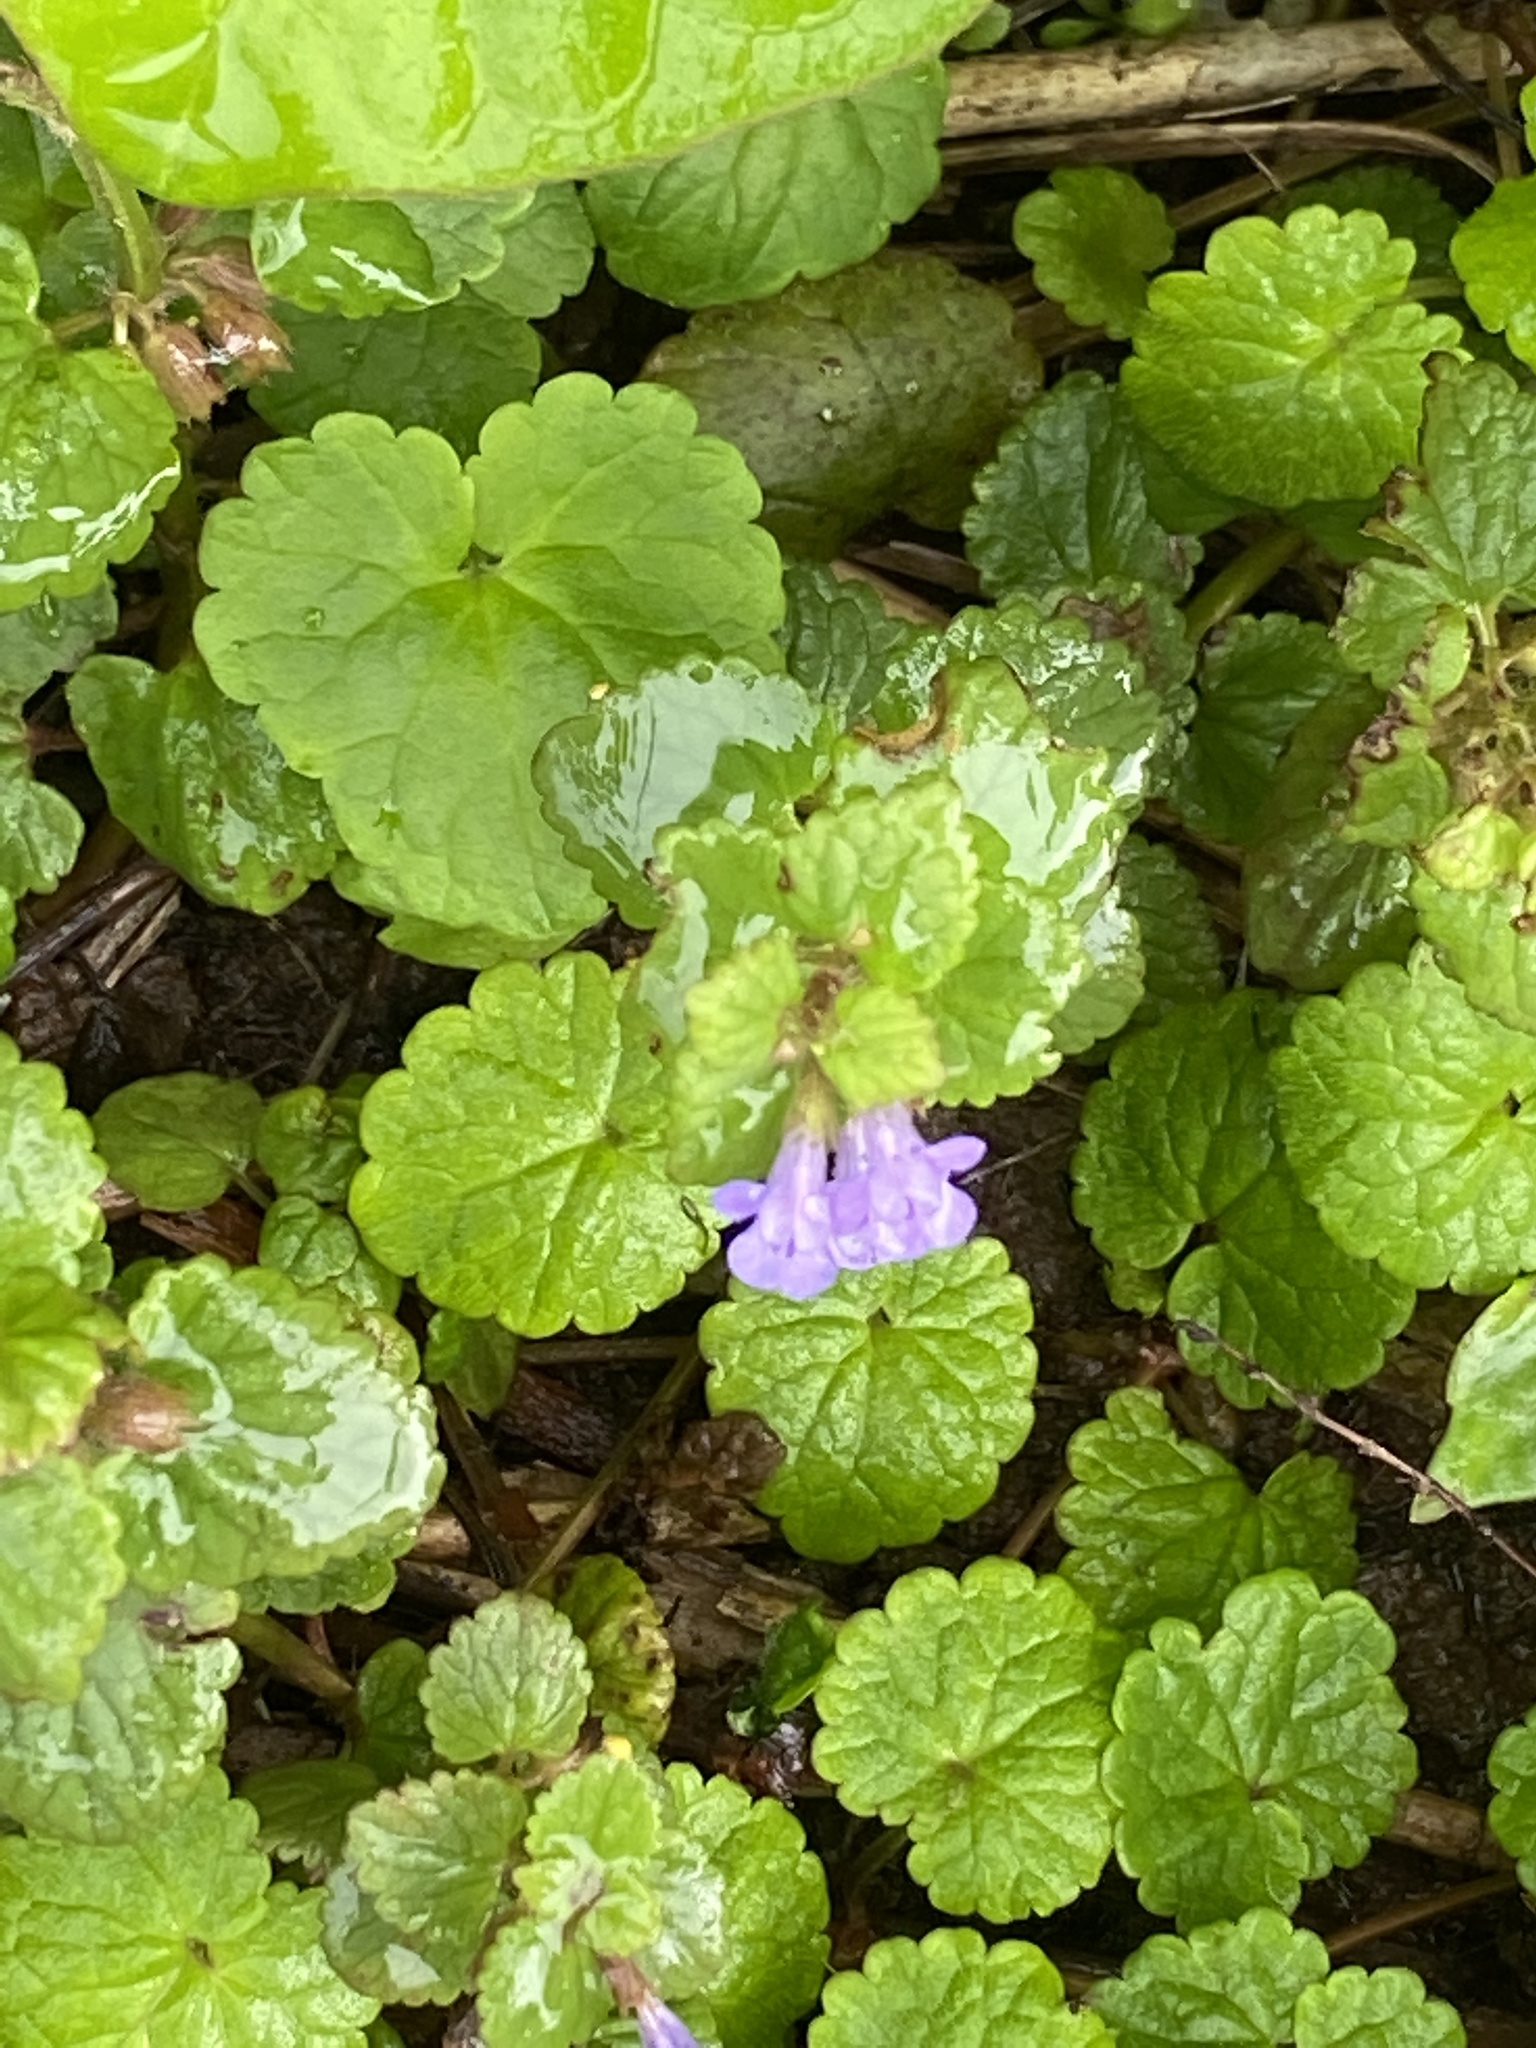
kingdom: Plantae
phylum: Tracheophyta
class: Magnoliopsida
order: Lamiales
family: Lamiaceae
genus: Glechoma
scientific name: Glechoma hederacea
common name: Ground ivy
